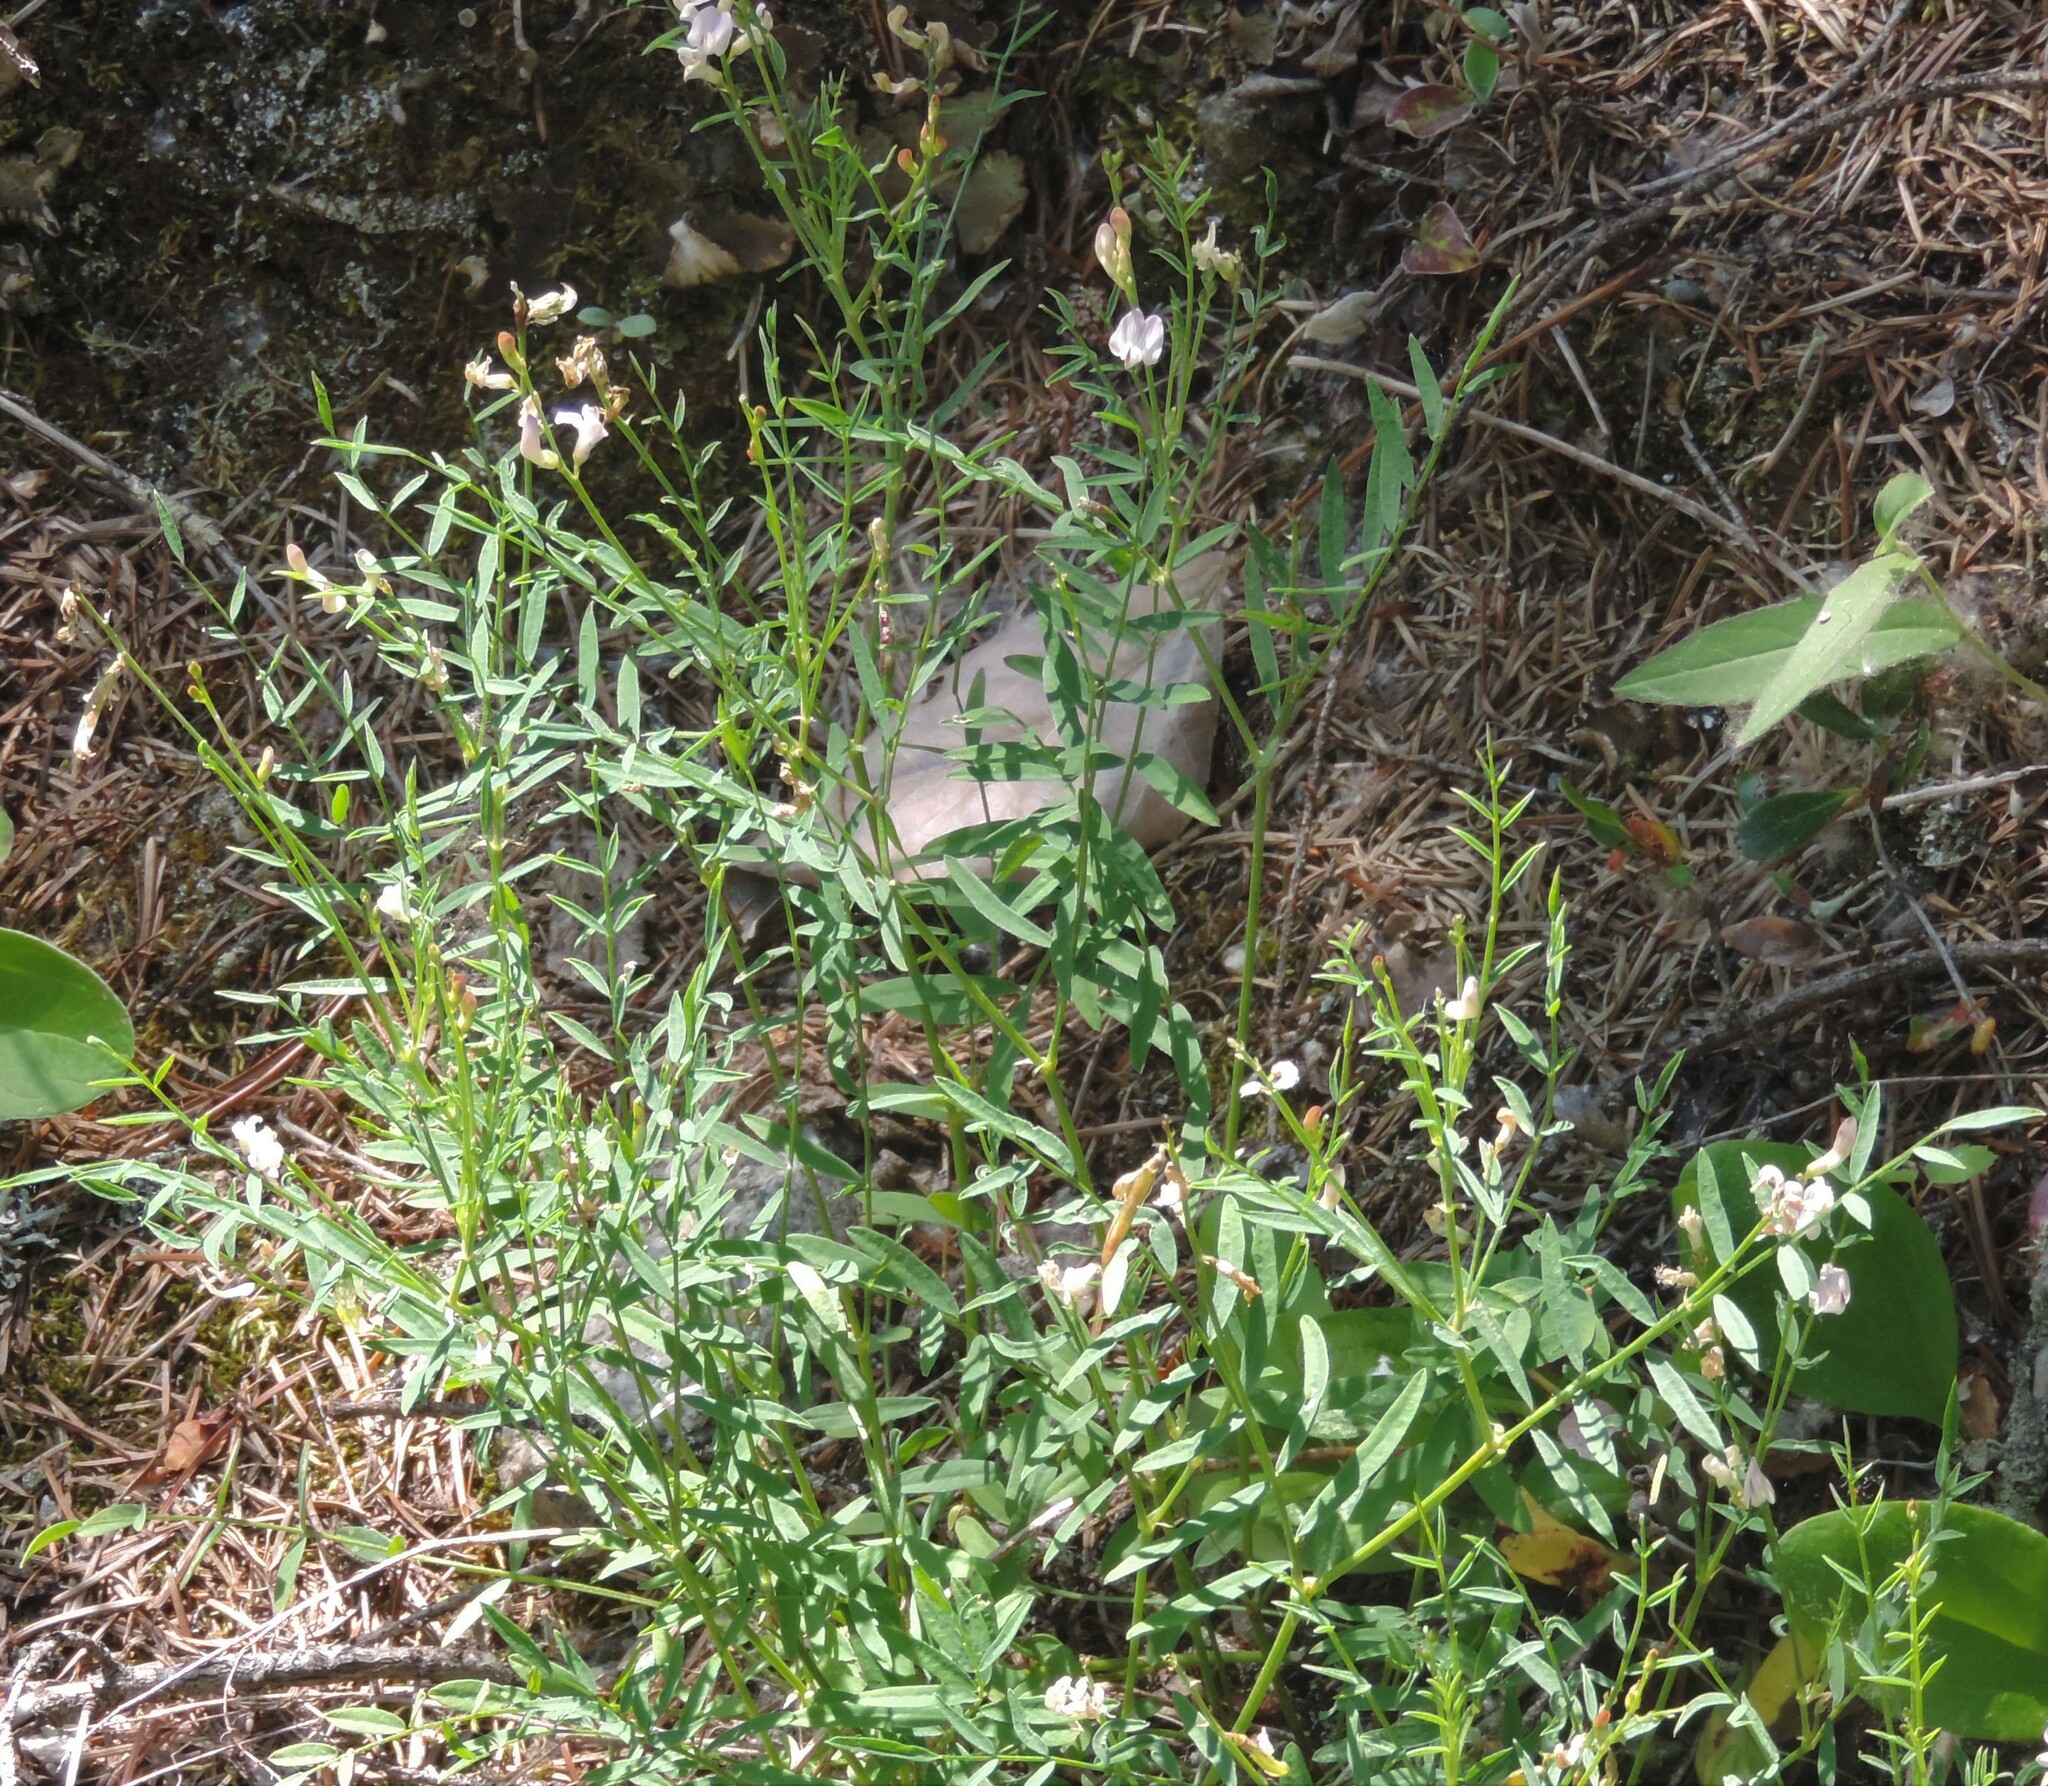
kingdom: Plantae
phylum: Tracheophyta
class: Magnoliopsida
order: Fabales
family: Fabaceae
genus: Astragalus
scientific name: Astragalus miser
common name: Timber milkvetch
